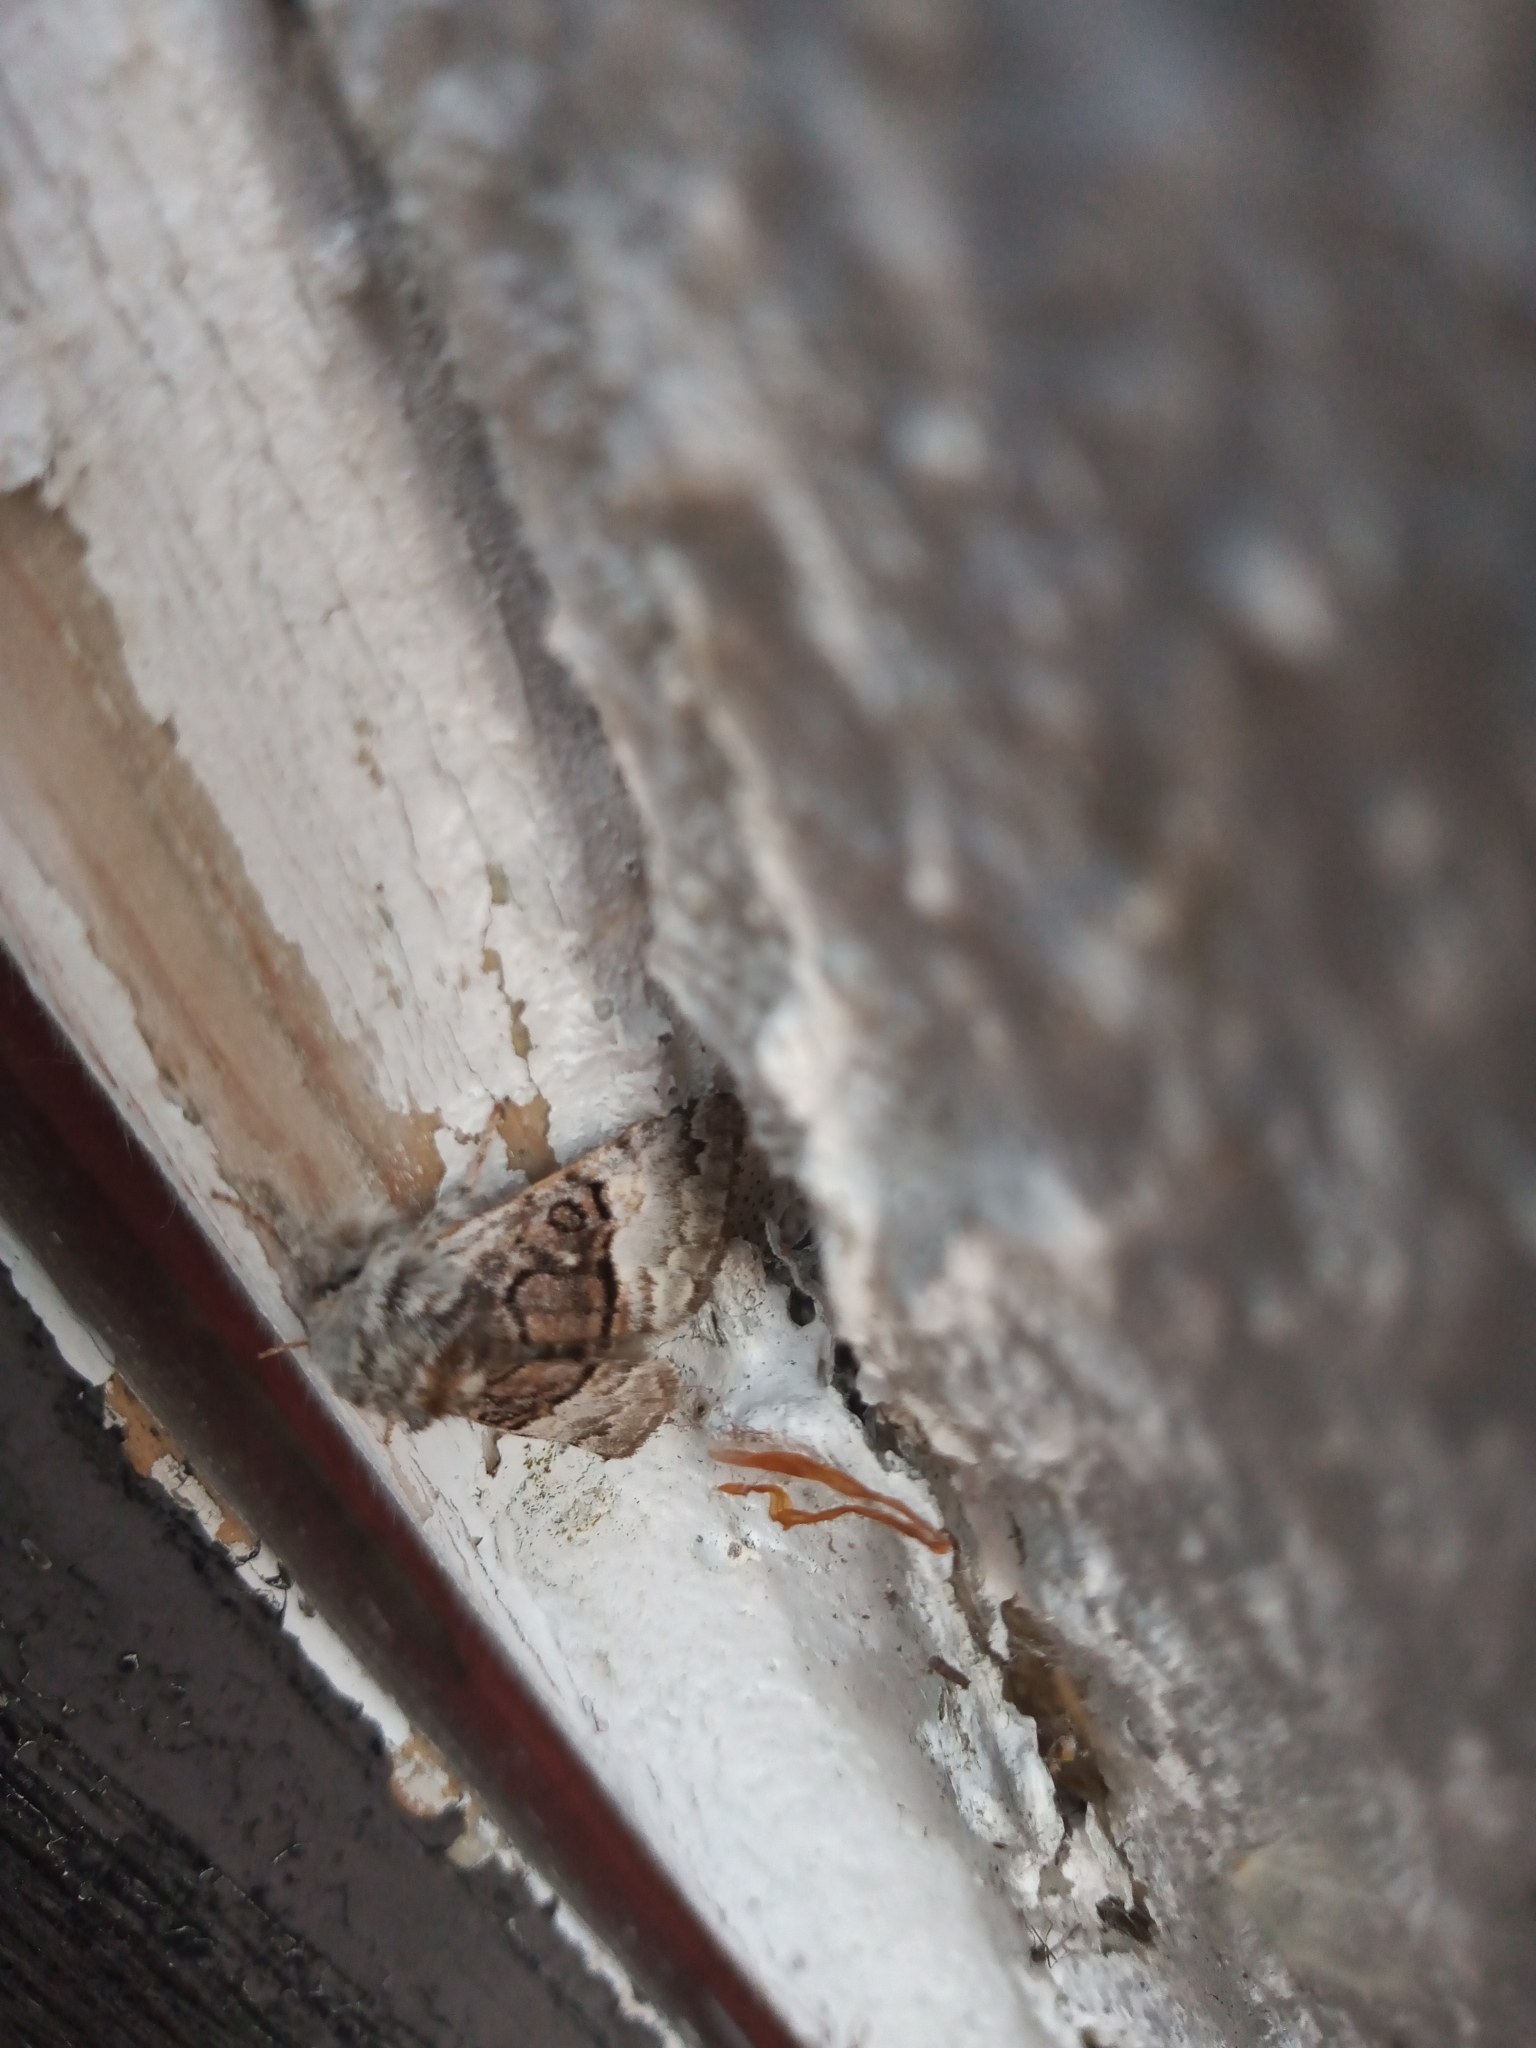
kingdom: Animalia
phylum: Arthropoda
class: Insecta
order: Lepidoptera
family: Noctuidae
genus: Colocasia
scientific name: Colocasia coryli
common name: Nut-tree tussock
